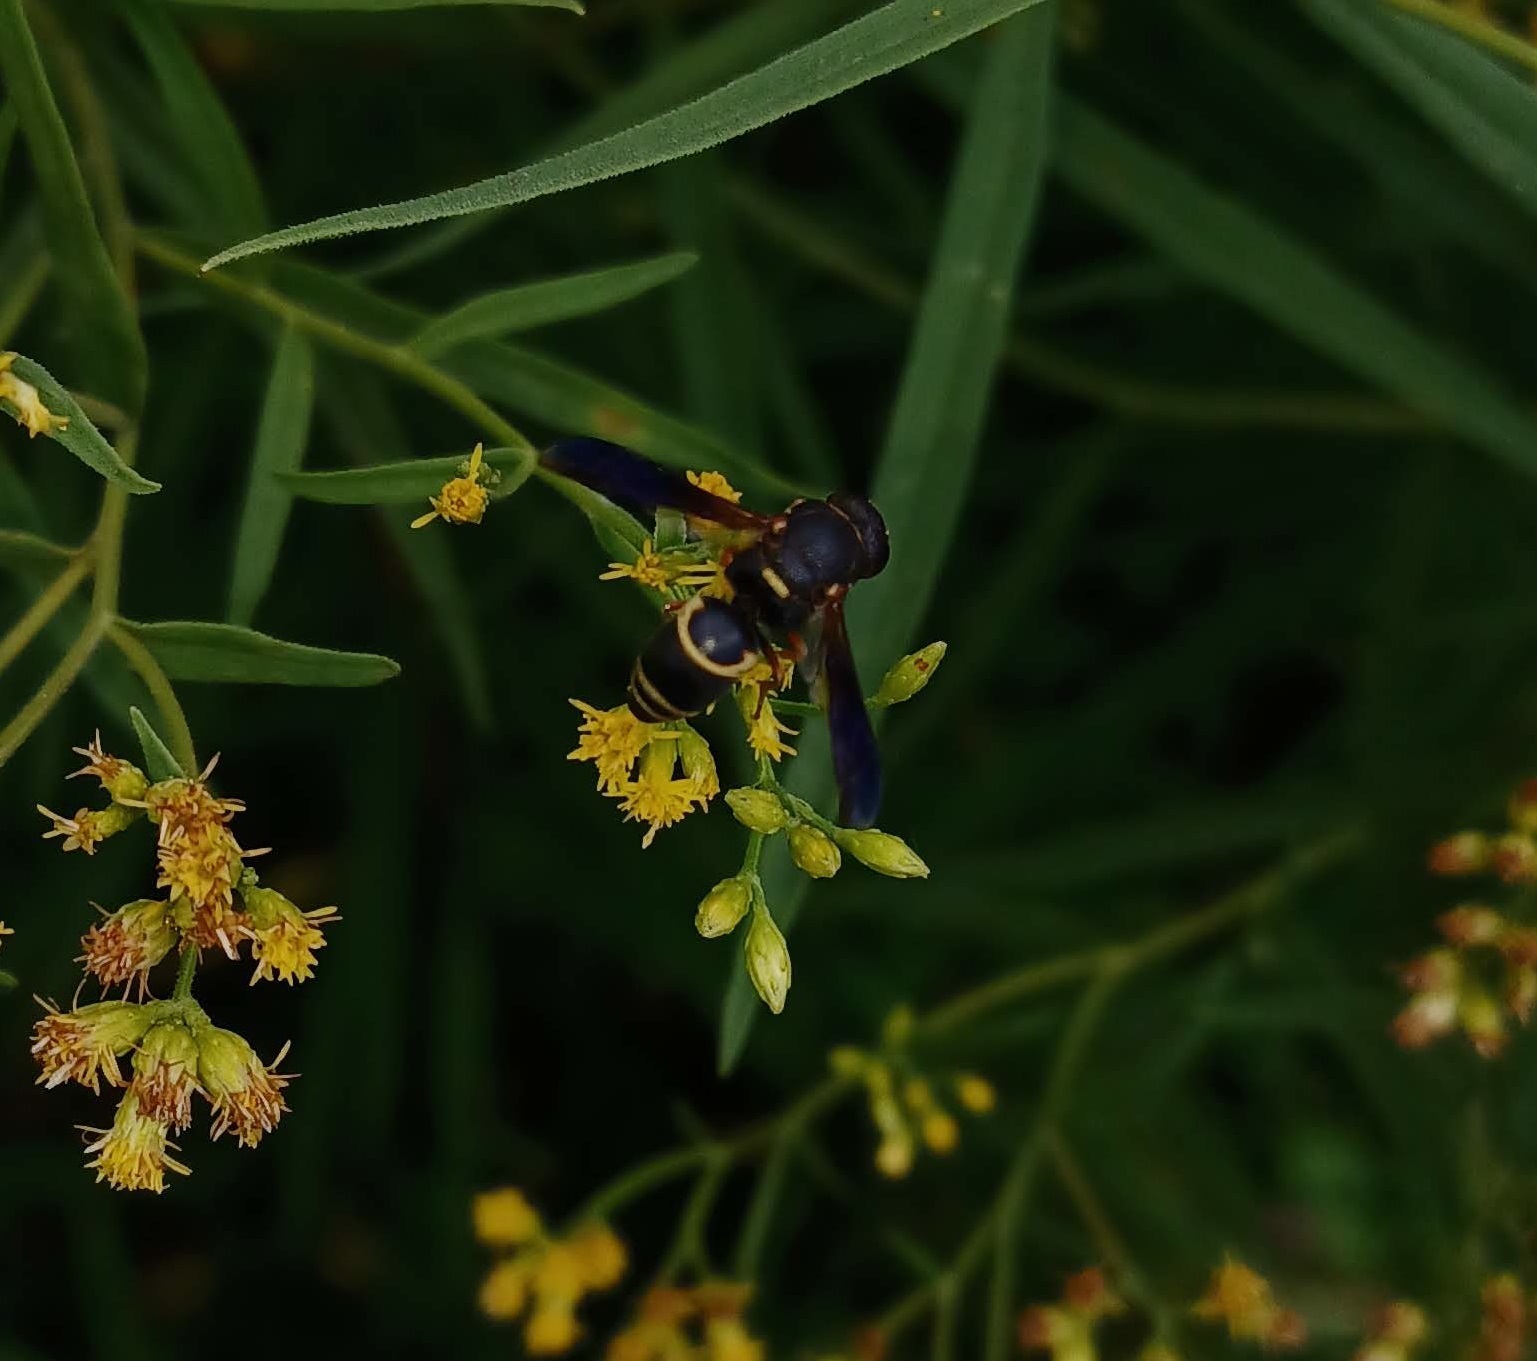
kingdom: Animalia
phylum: Arthropoda
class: Insecta
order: Hymenoptera
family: Eumenidae
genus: Euodynerus
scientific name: Euodynerus hidalgo
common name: Wasp
